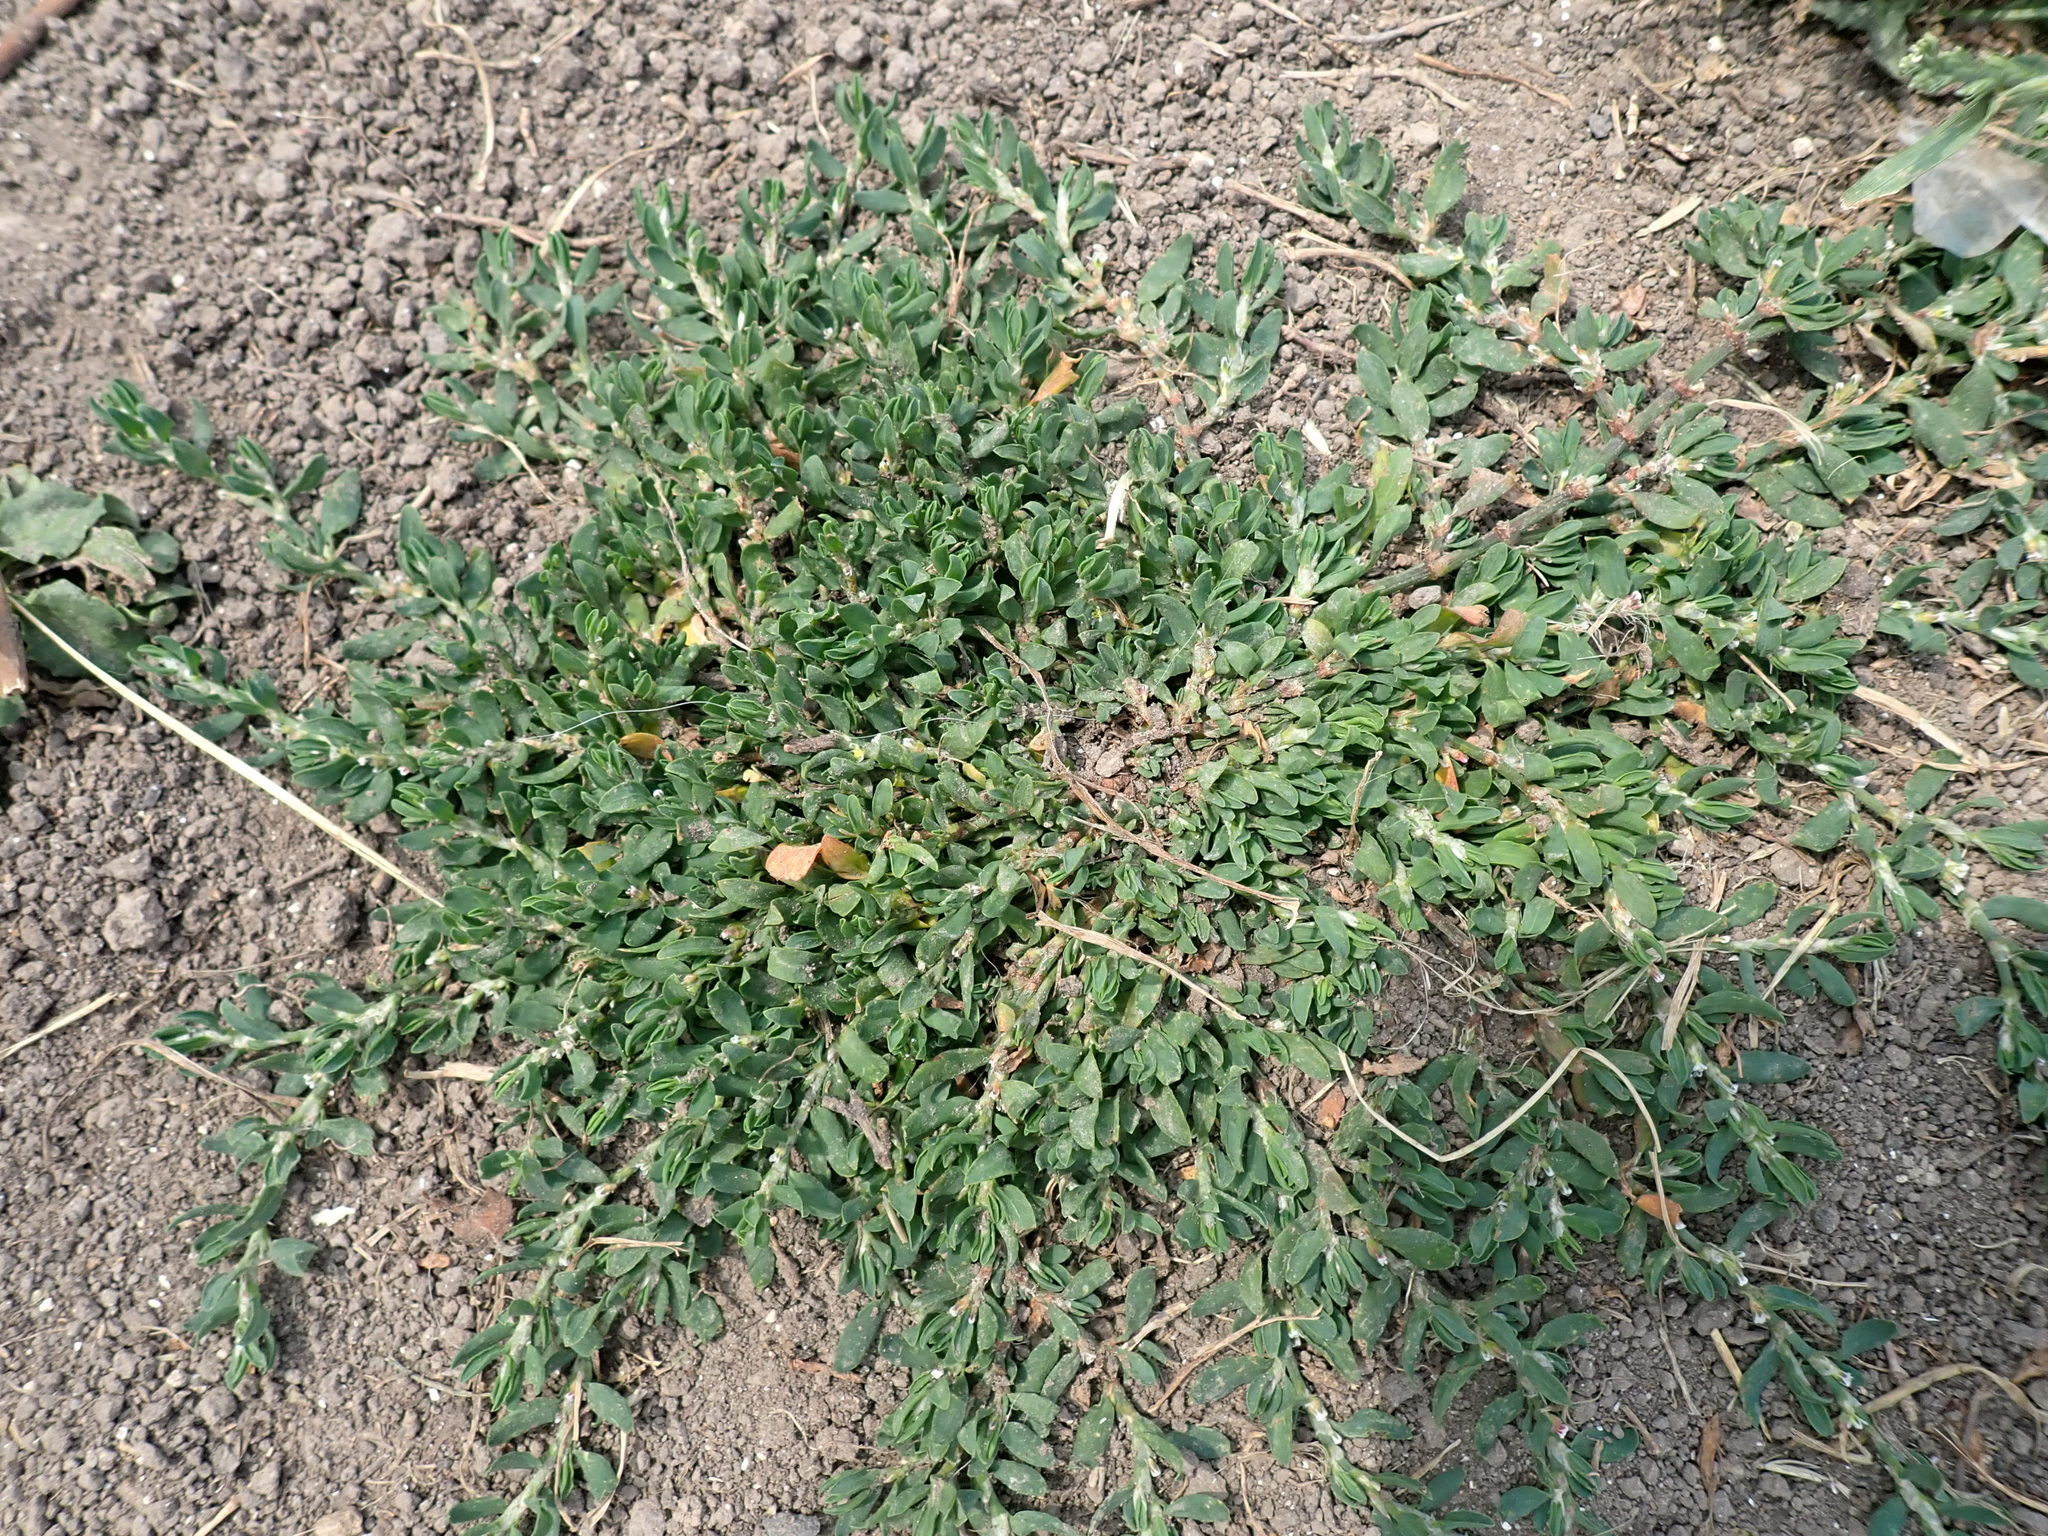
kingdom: Plantae
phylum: Tracheophyta
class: Magnoliopsida
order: Caryophyllales
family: Polygonaceae
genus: Polygonum
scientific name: Polygonum arenastrum
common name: Equal-leaved knotgrass
